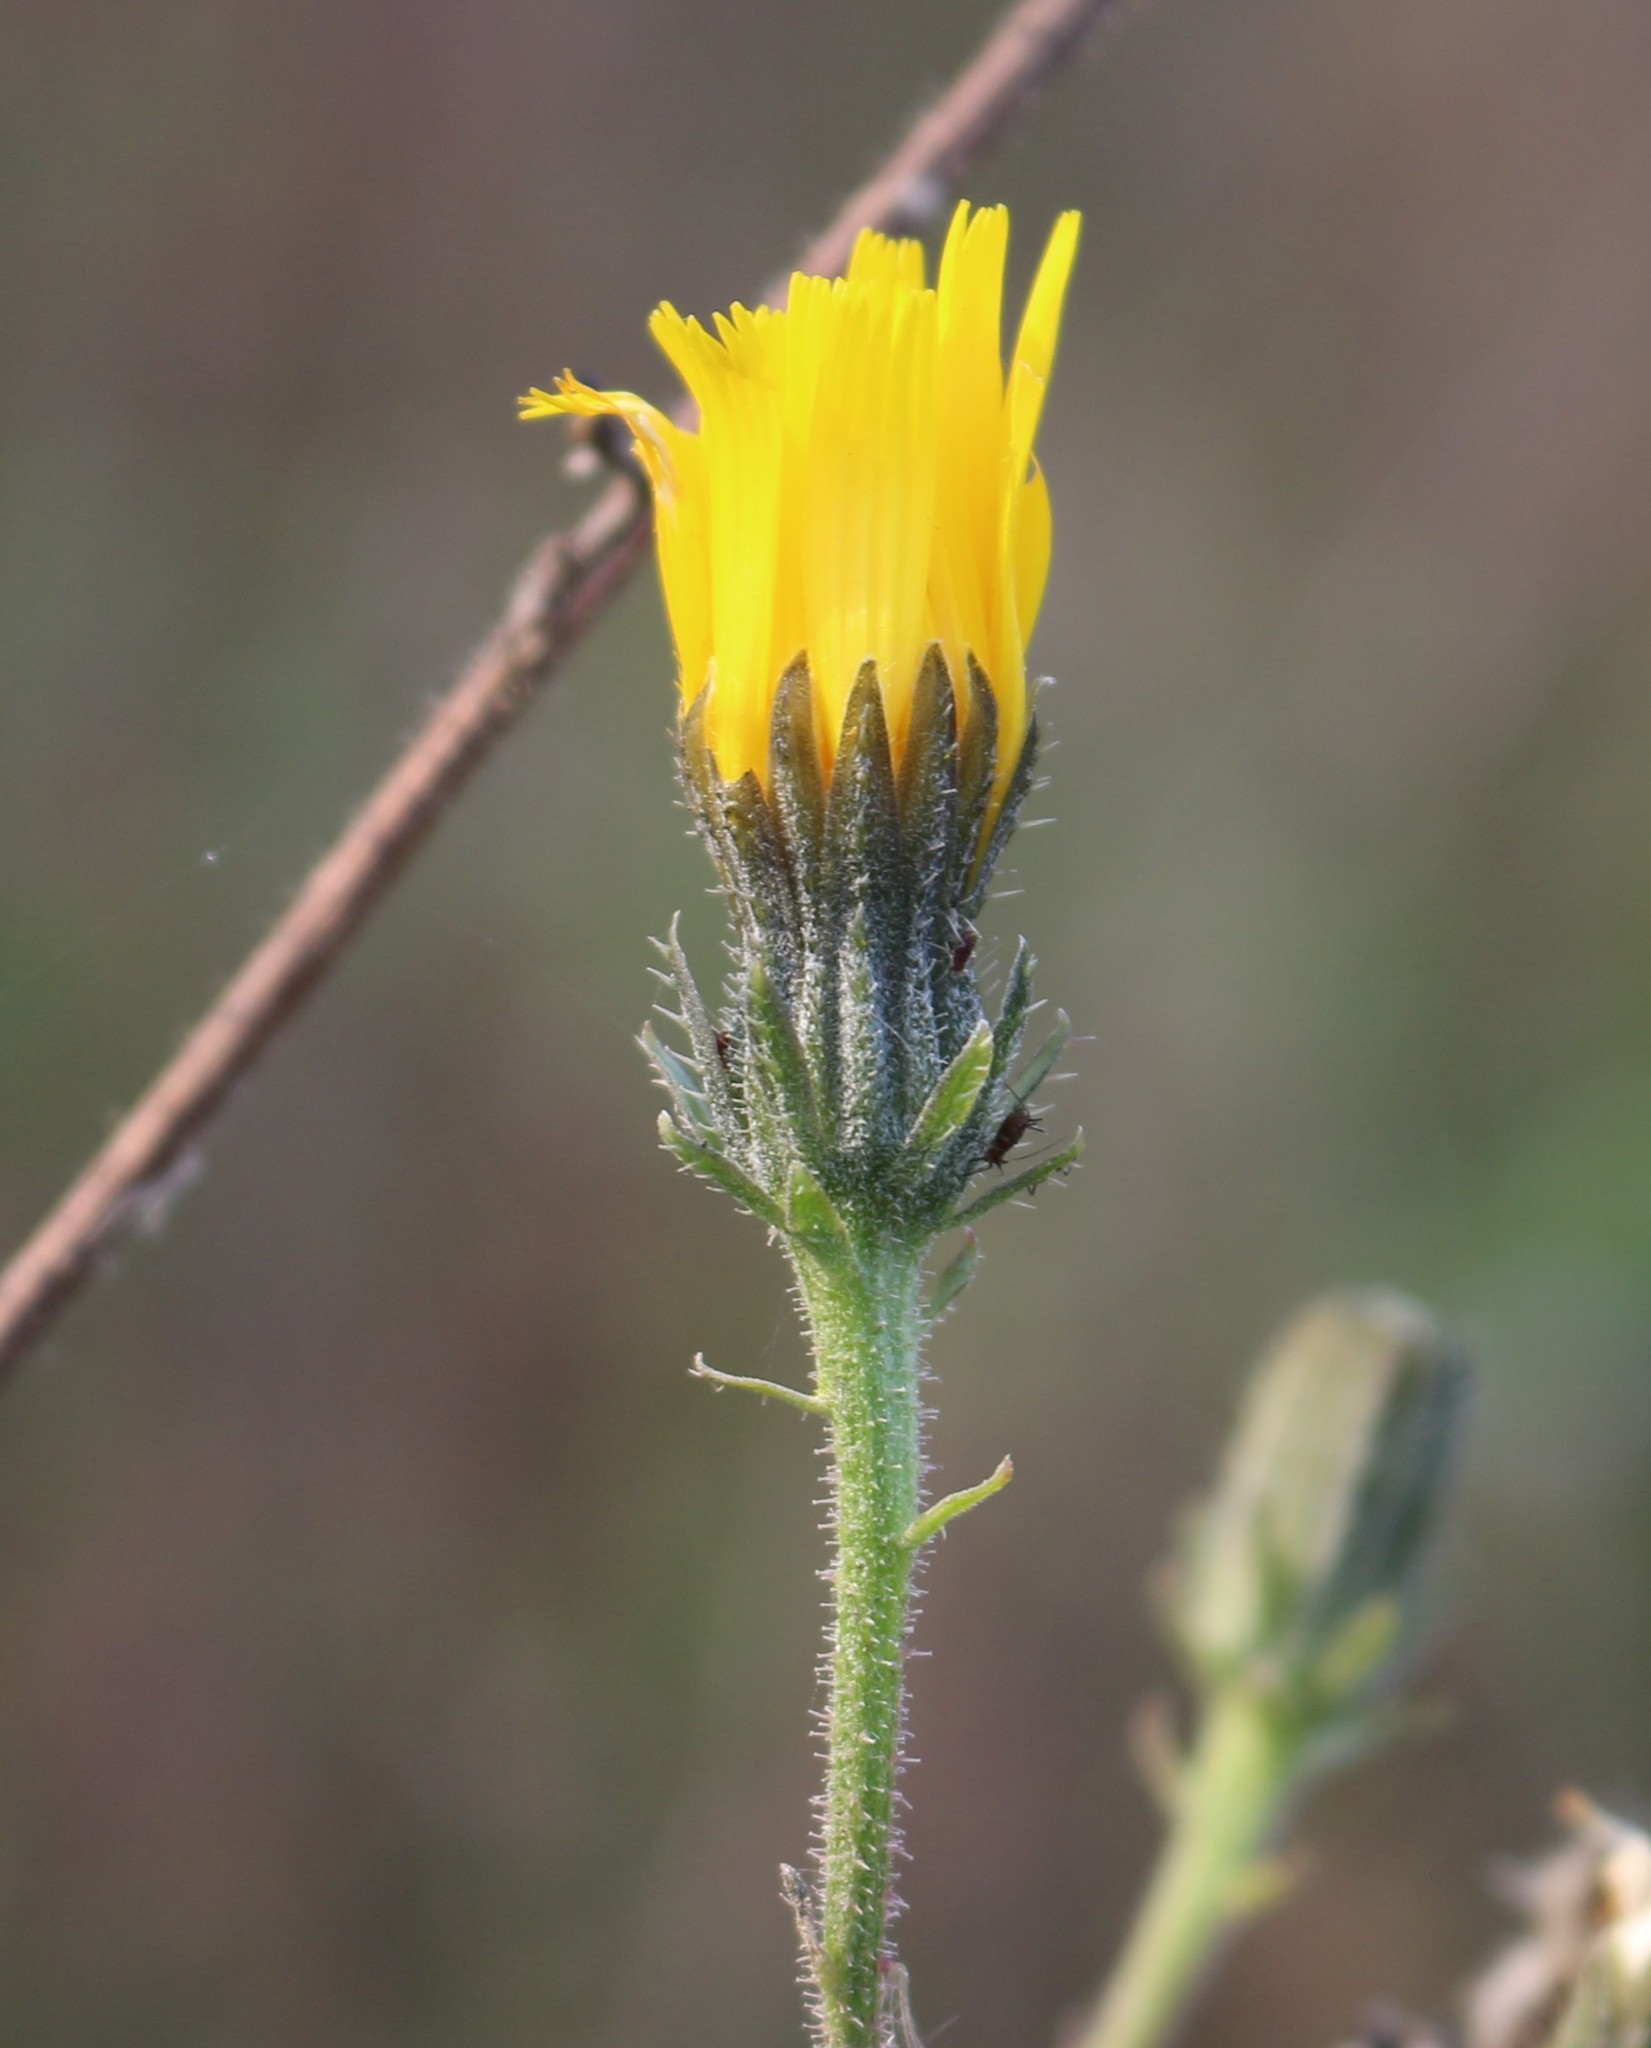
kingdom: Plantae
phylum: Tracheophyta
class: Magnoliopsida
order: Asterales
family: Asteraceae
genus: Picris
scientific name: Picris hieracioides
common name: Hawkweed oxtongue
